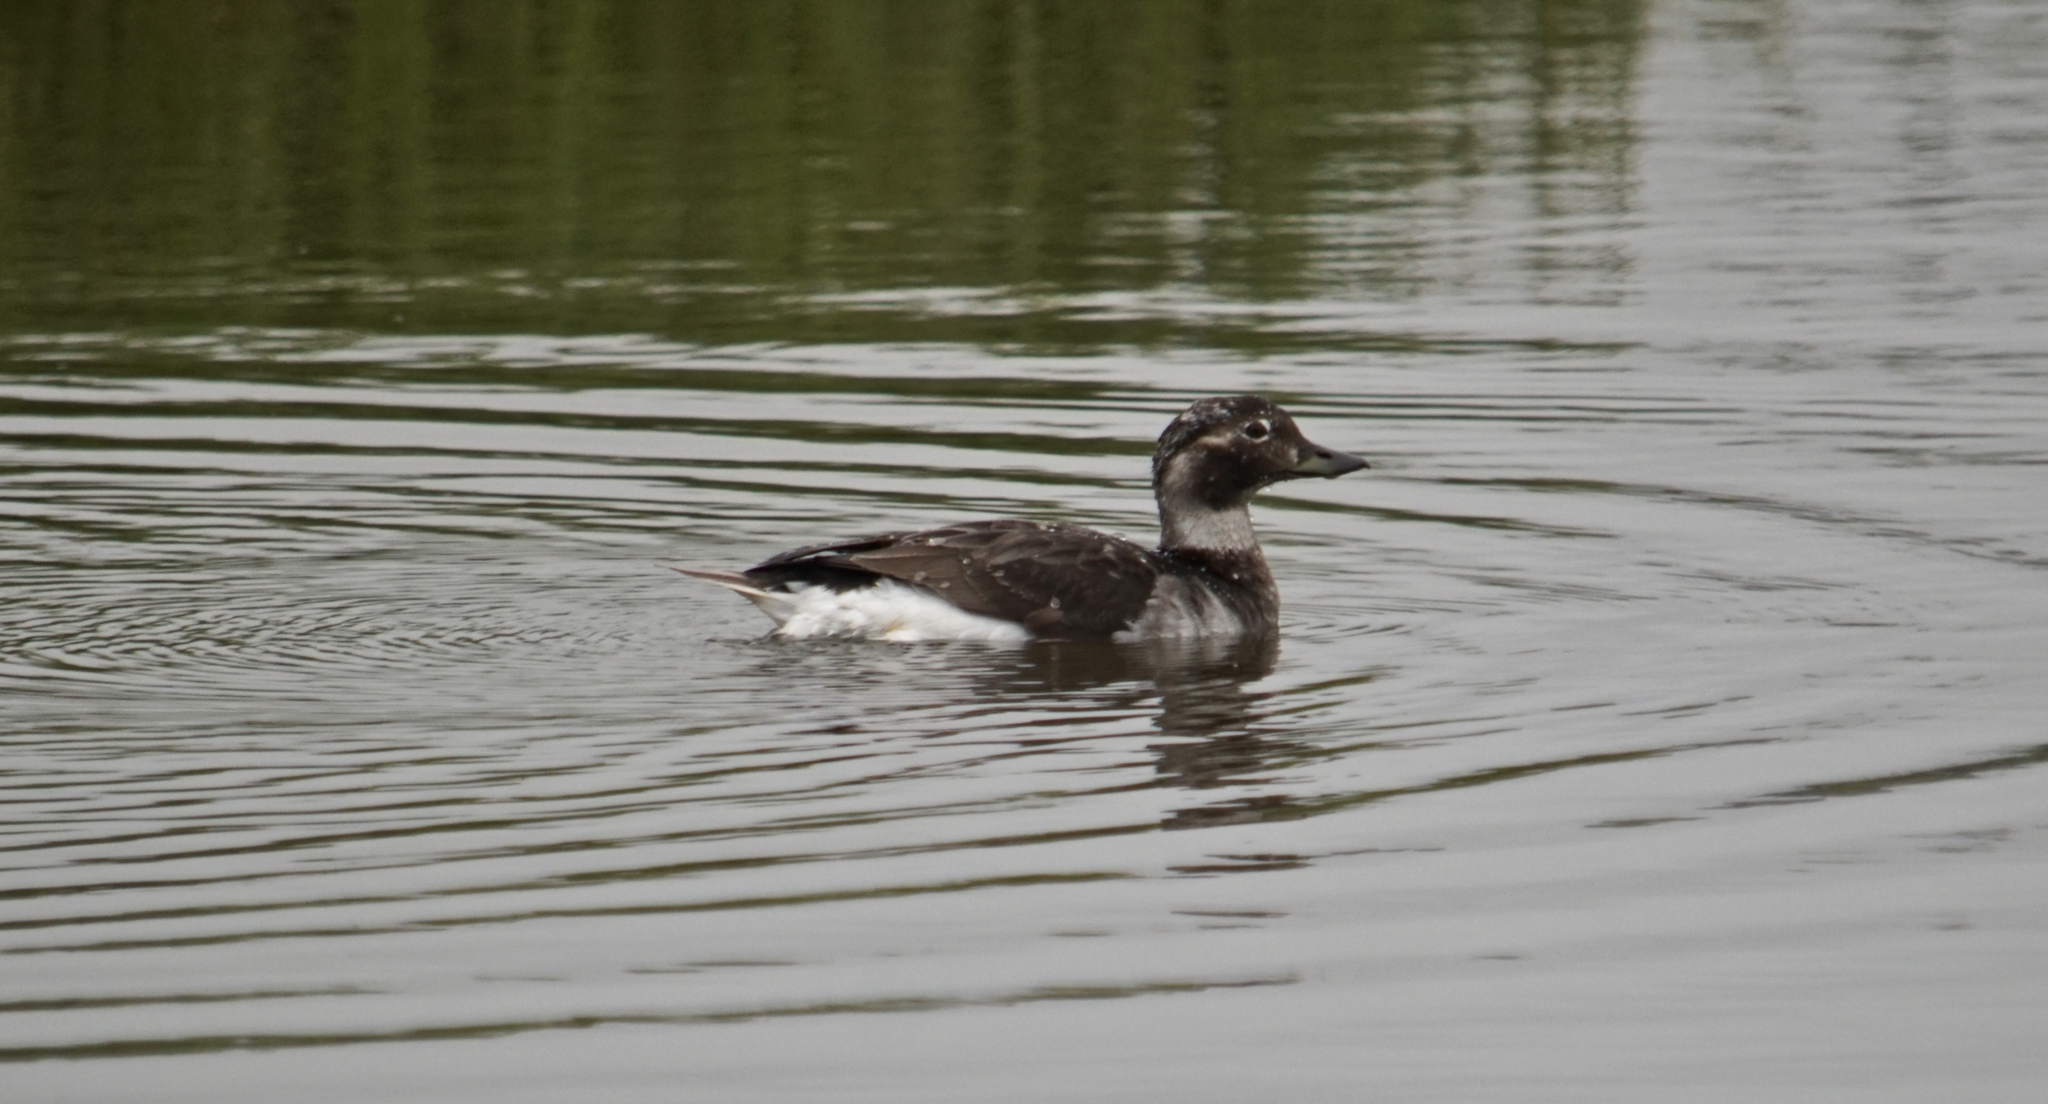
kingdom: Animalia
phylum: Chordata
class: Aves
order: Anseriformes
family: Anatidae
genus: Clangula
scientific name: Clangula hyemalis
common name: Long-tailed duck
